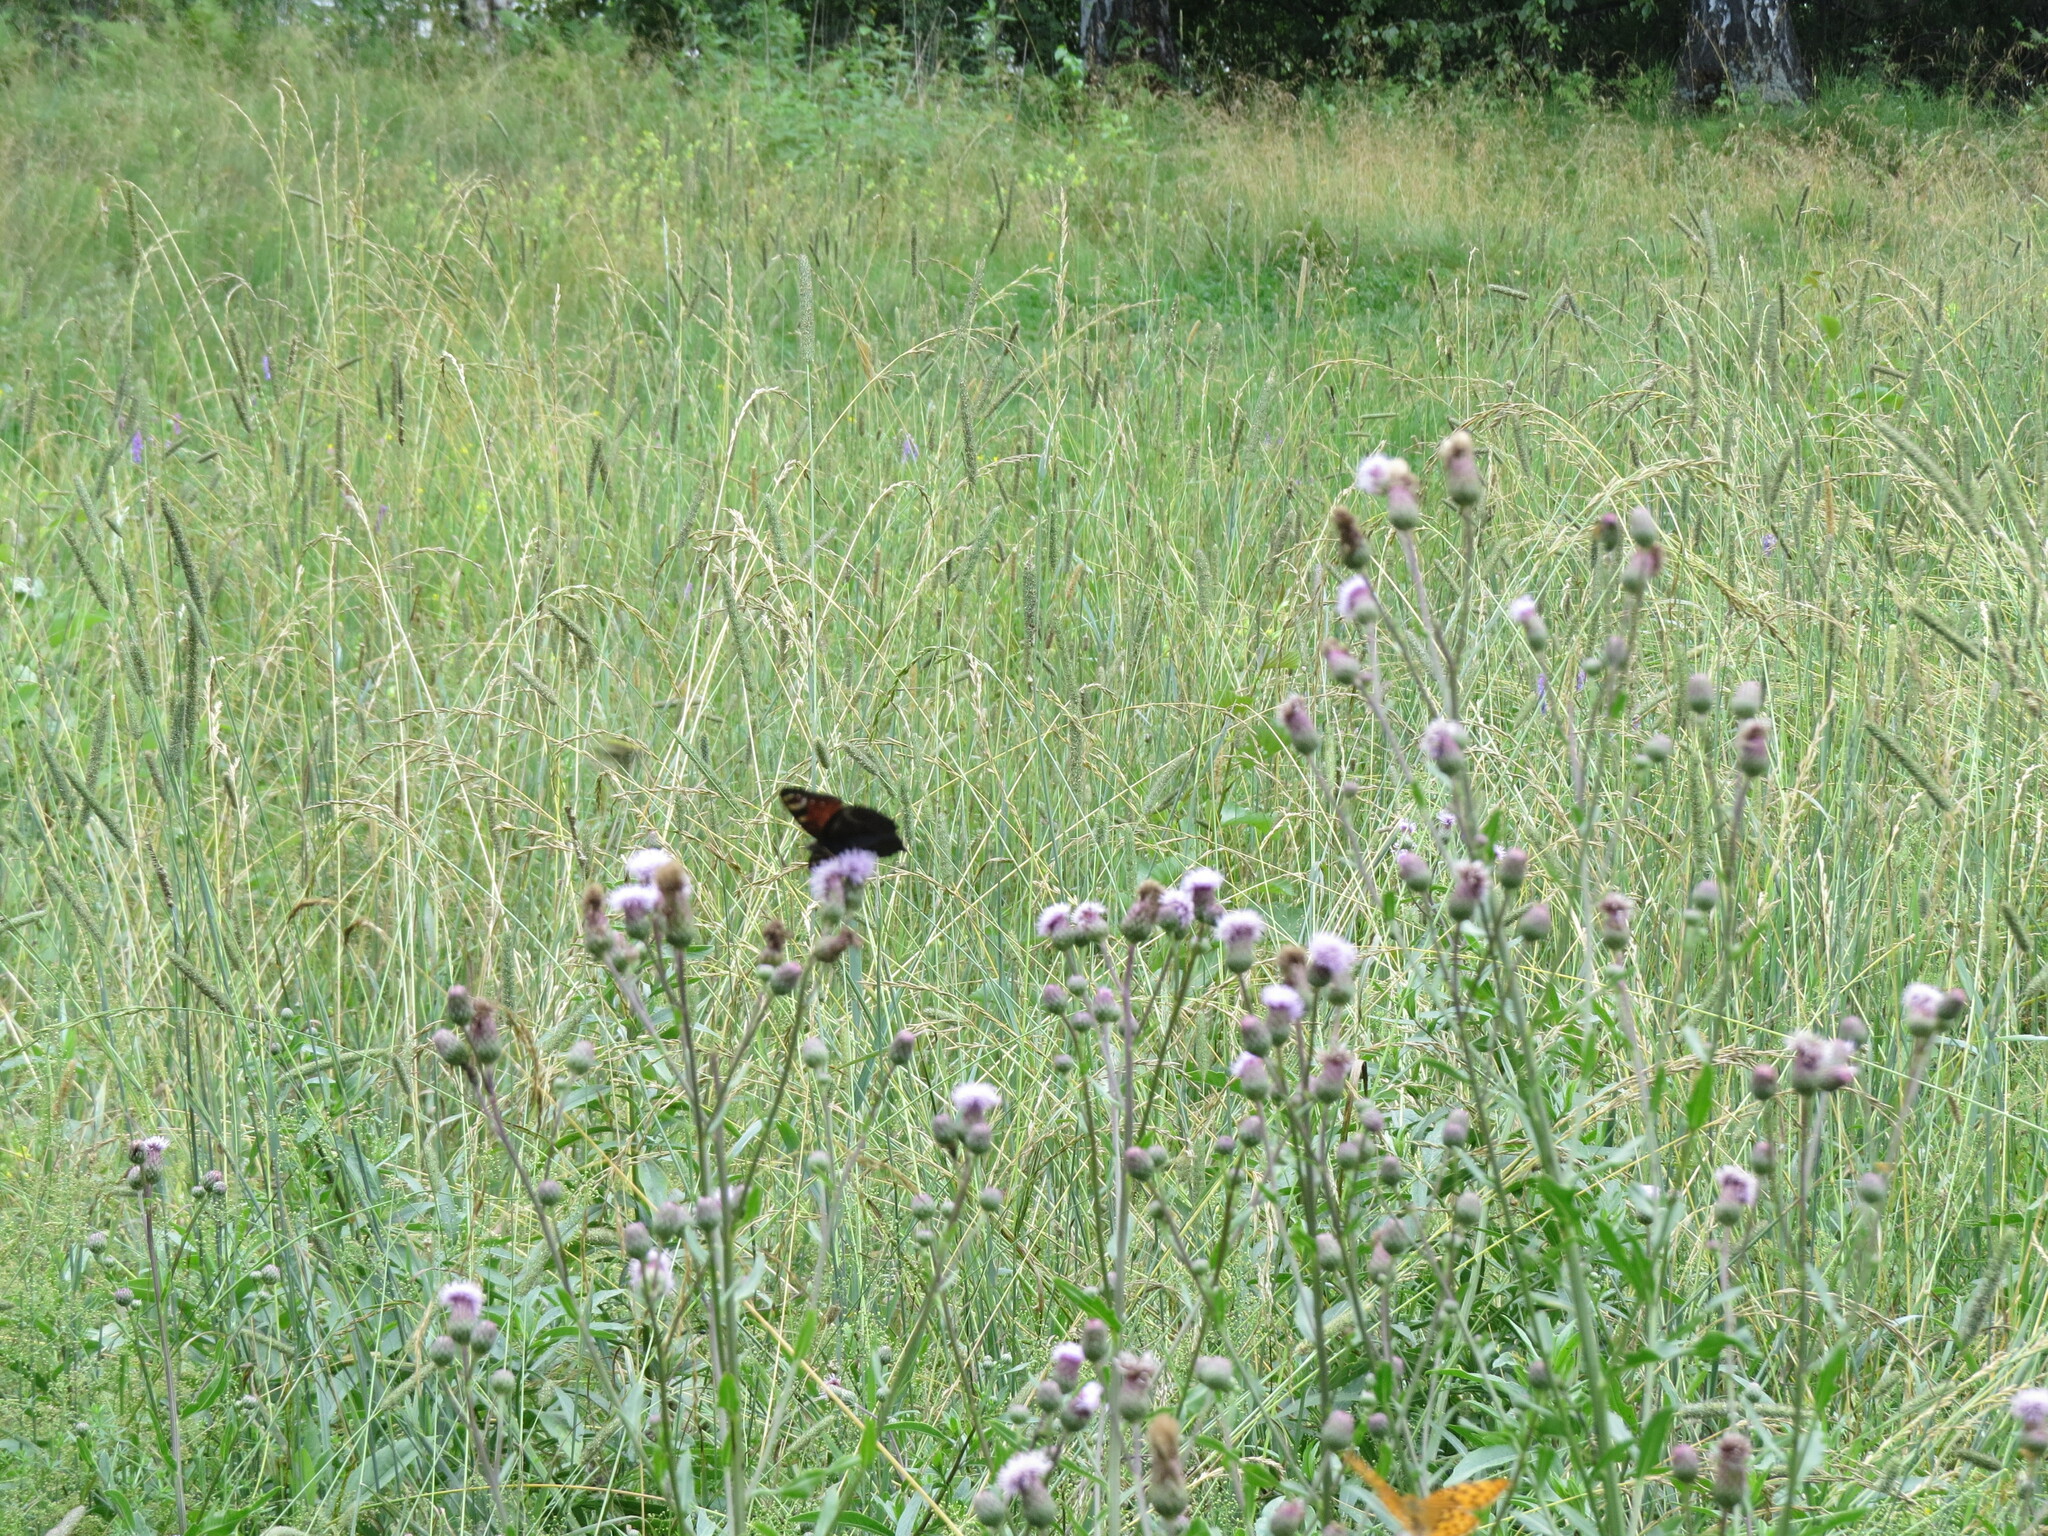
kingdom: Animalia
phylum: Arthropoda
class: Insecta
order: Lepidoptera
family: Nymphalidae
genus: Aglais
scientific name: Aglais io
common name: Peacock
